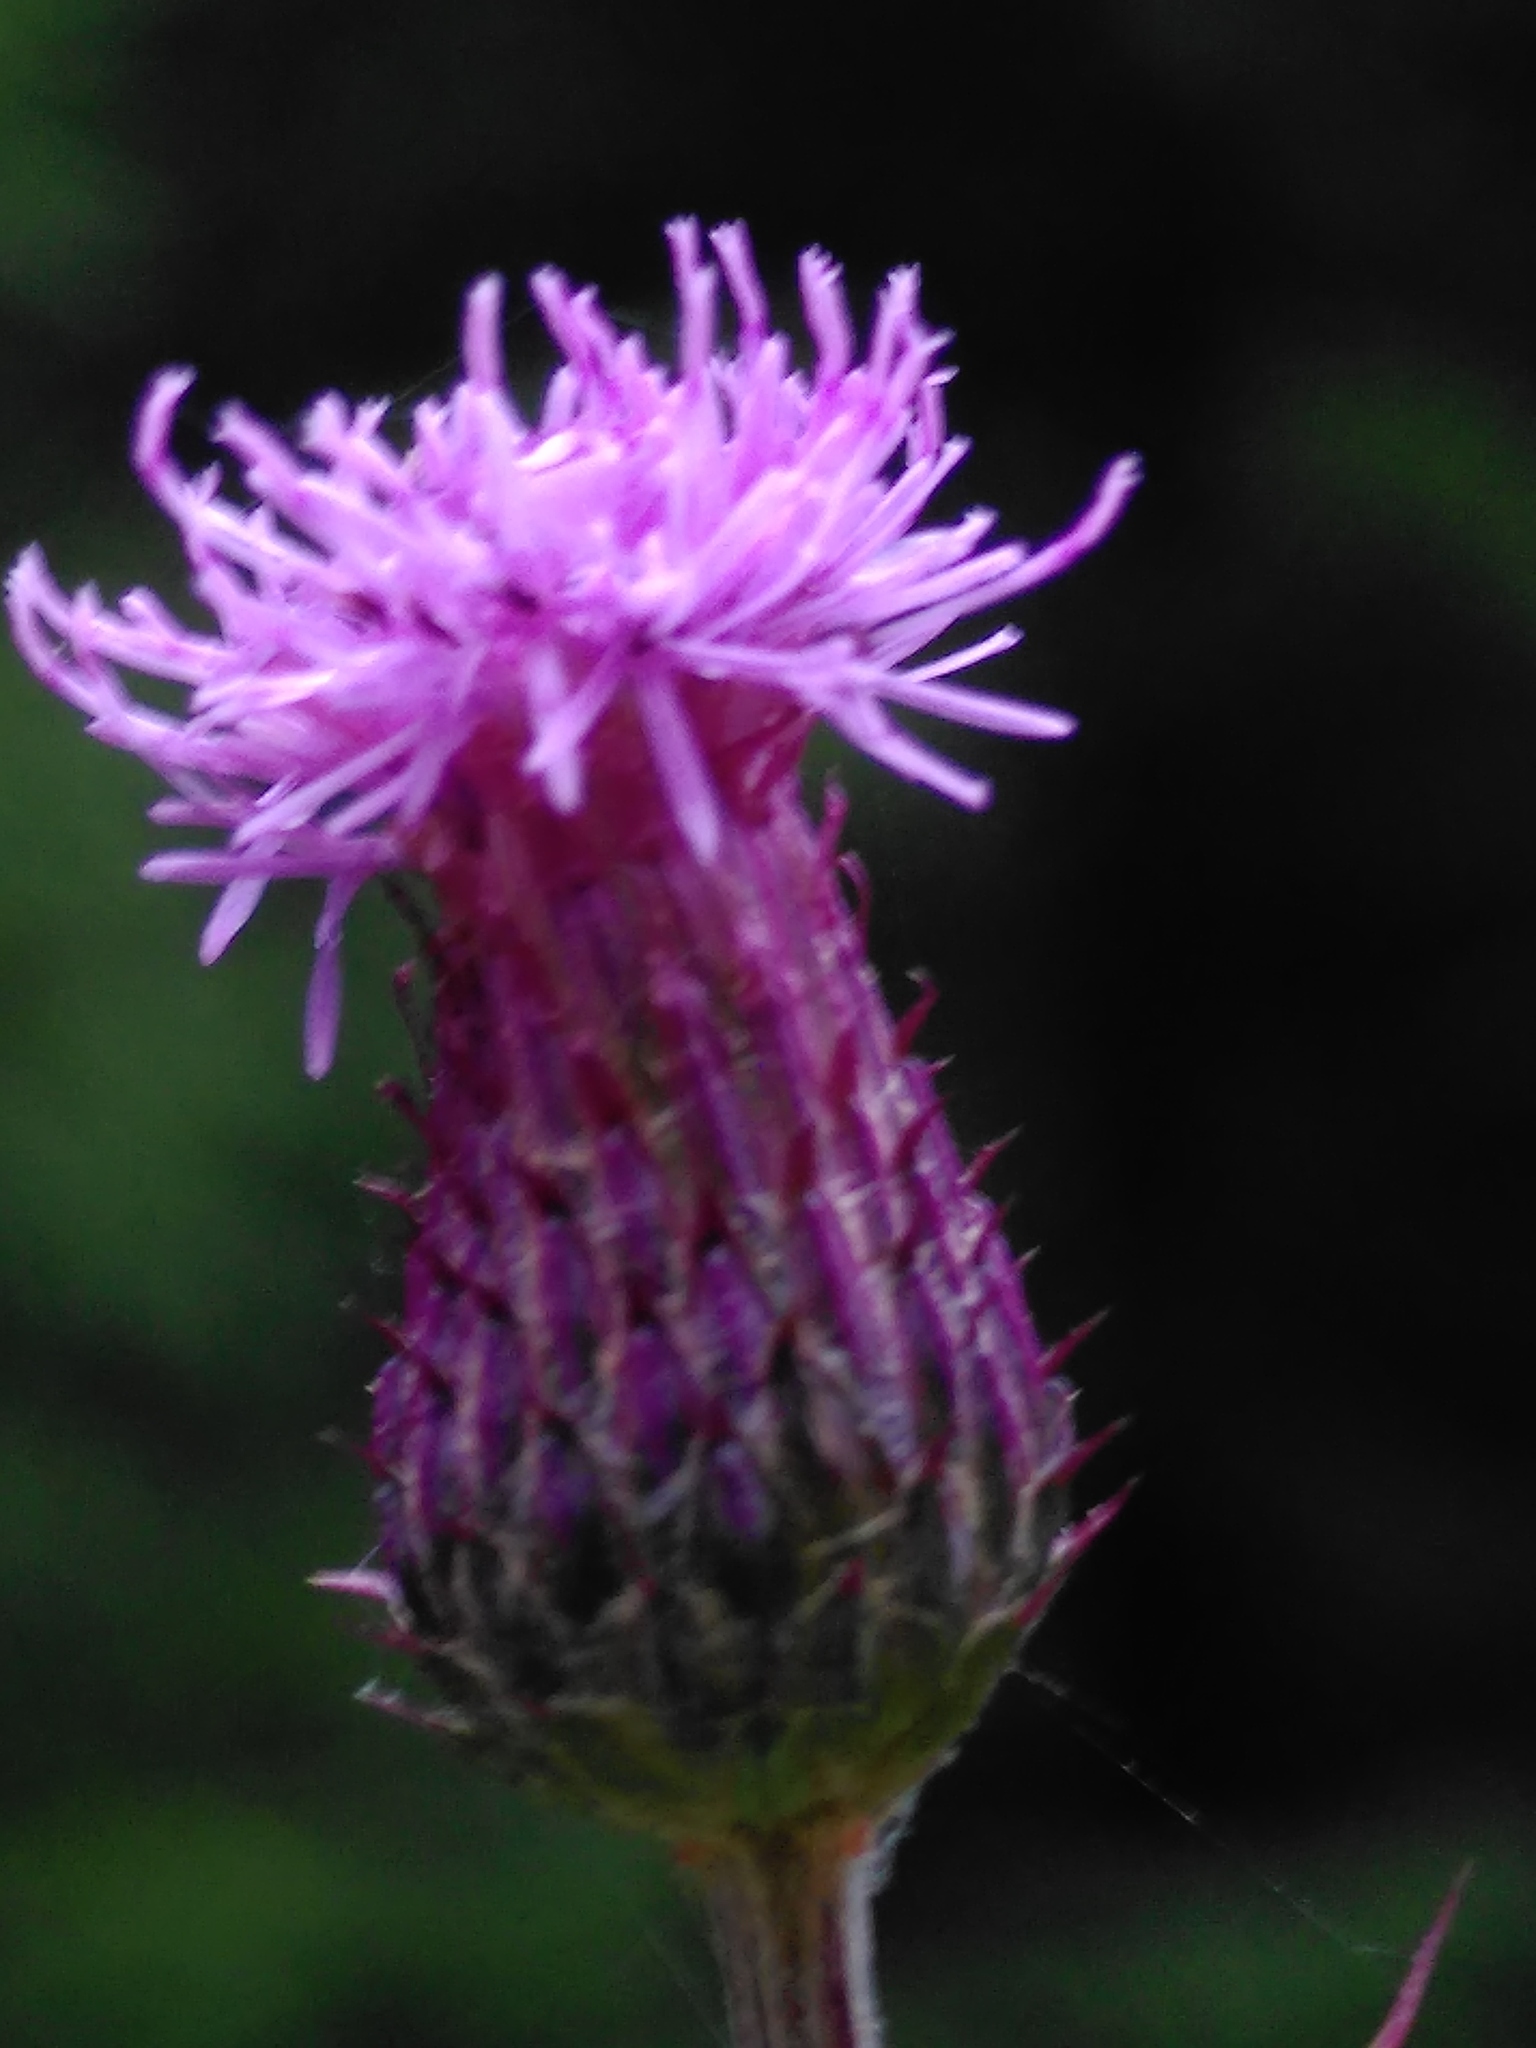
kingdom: Plantae
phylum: Tracheophyta
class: Magnoliopsida
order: Asterales
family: Asteraceae
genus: Cirsium
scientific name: Cirsium arvense
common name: Creeping thistle
